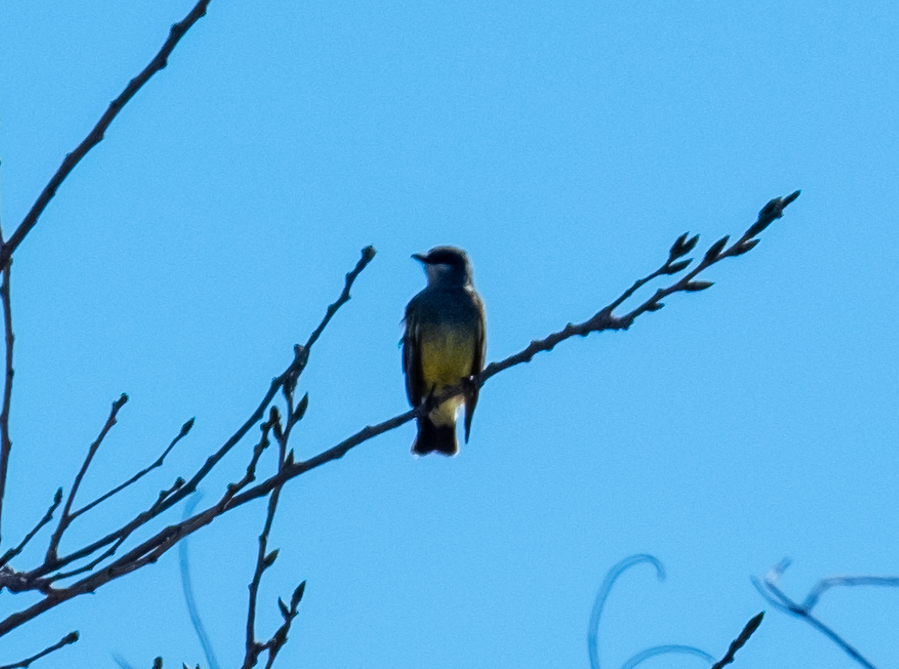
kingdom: Animalia
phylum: Chordata
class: Aves
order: Passeriformes
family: Tyrannidae
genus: Tyrannus
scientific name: Tyrannus vociferans
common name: Cassin's kingbird
